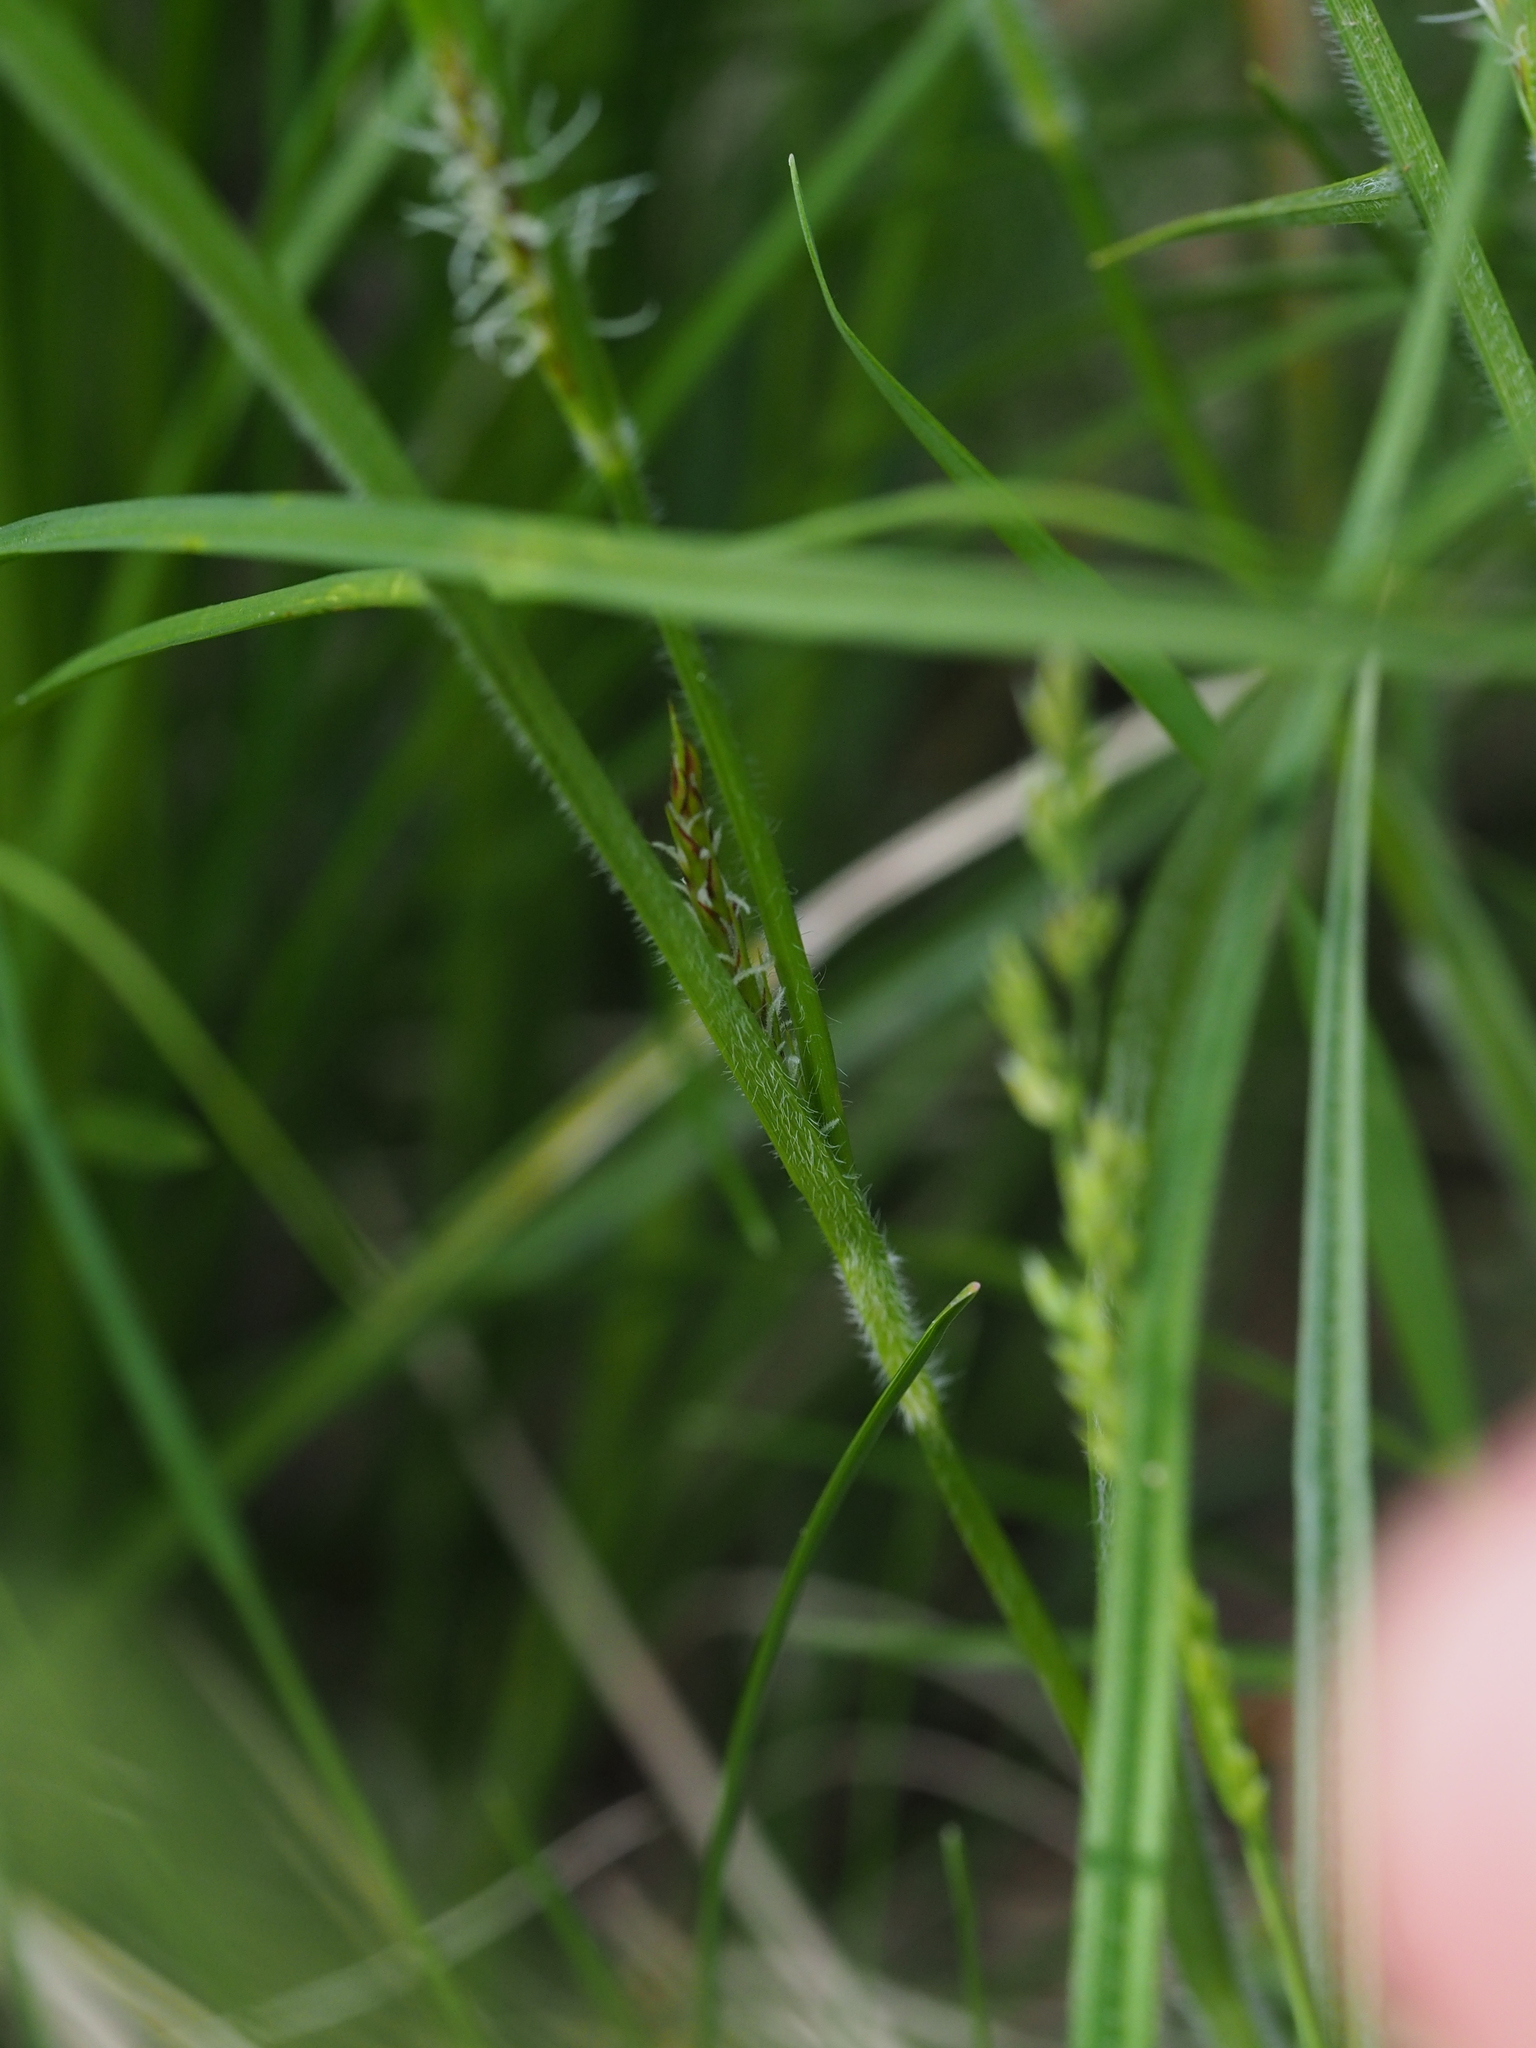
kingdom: Plantae
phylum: Tracheophyta
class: Liliopsida
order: Poales
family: Cyperaceae
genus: Carex
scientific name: Carex hirta
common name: Hairy sedge
